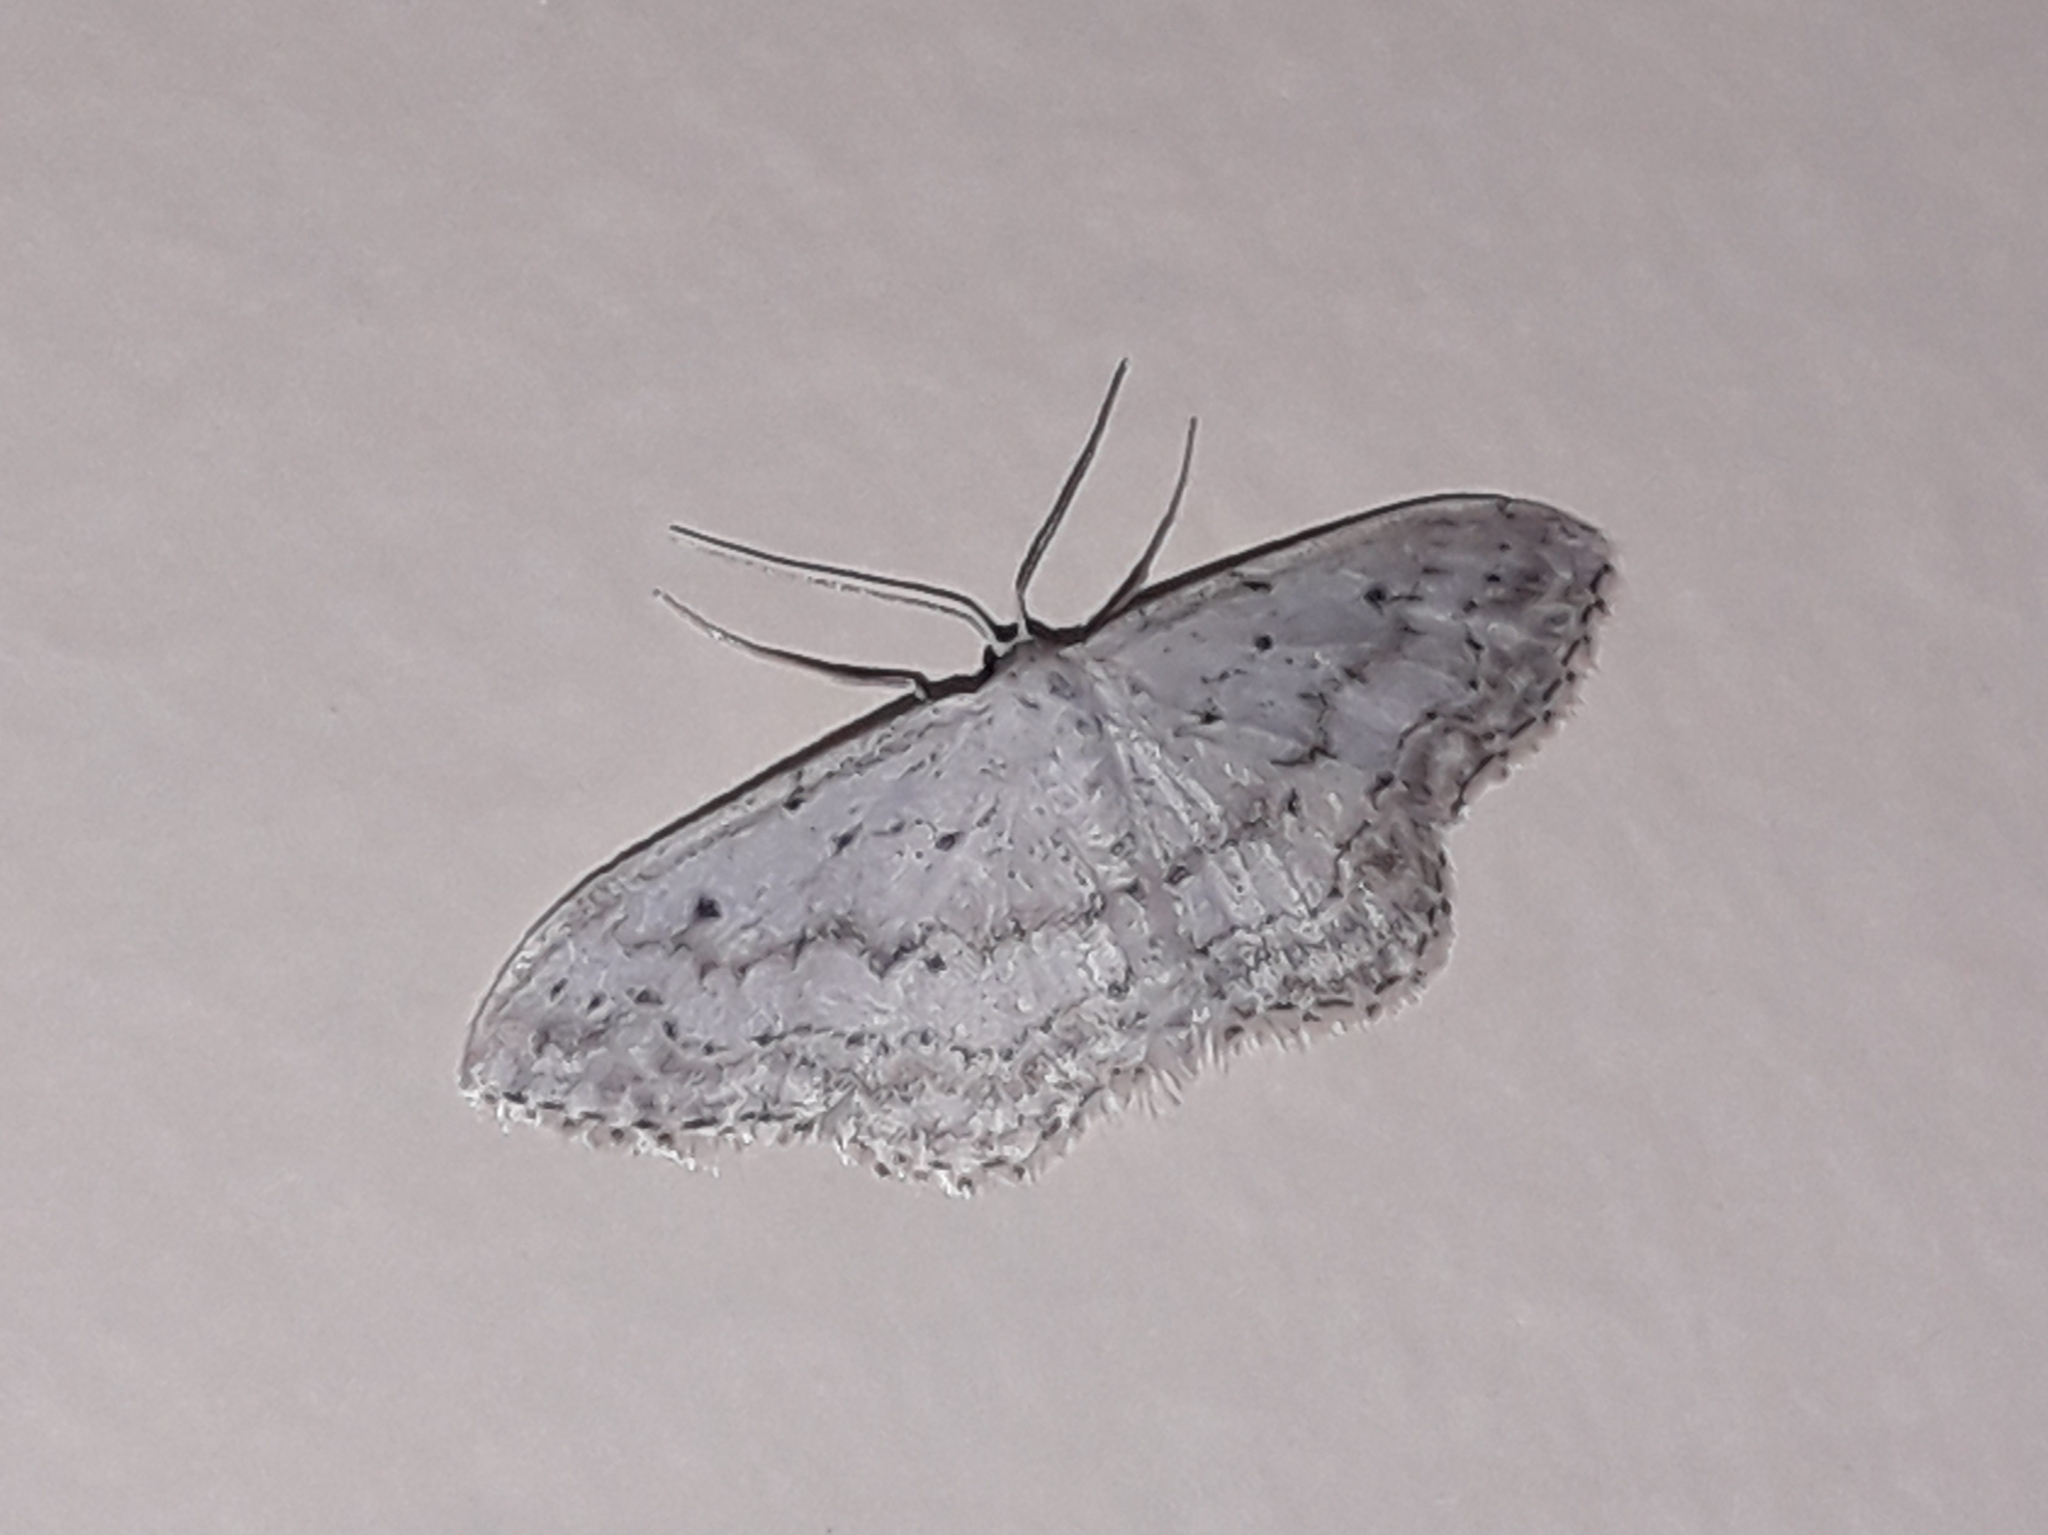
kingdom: Animalia
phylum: Arthropoda
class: Insecta
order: Lepidoptera
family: Geometridae
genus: Idaea
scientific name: Idaea seriata
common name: Small dusty wave
